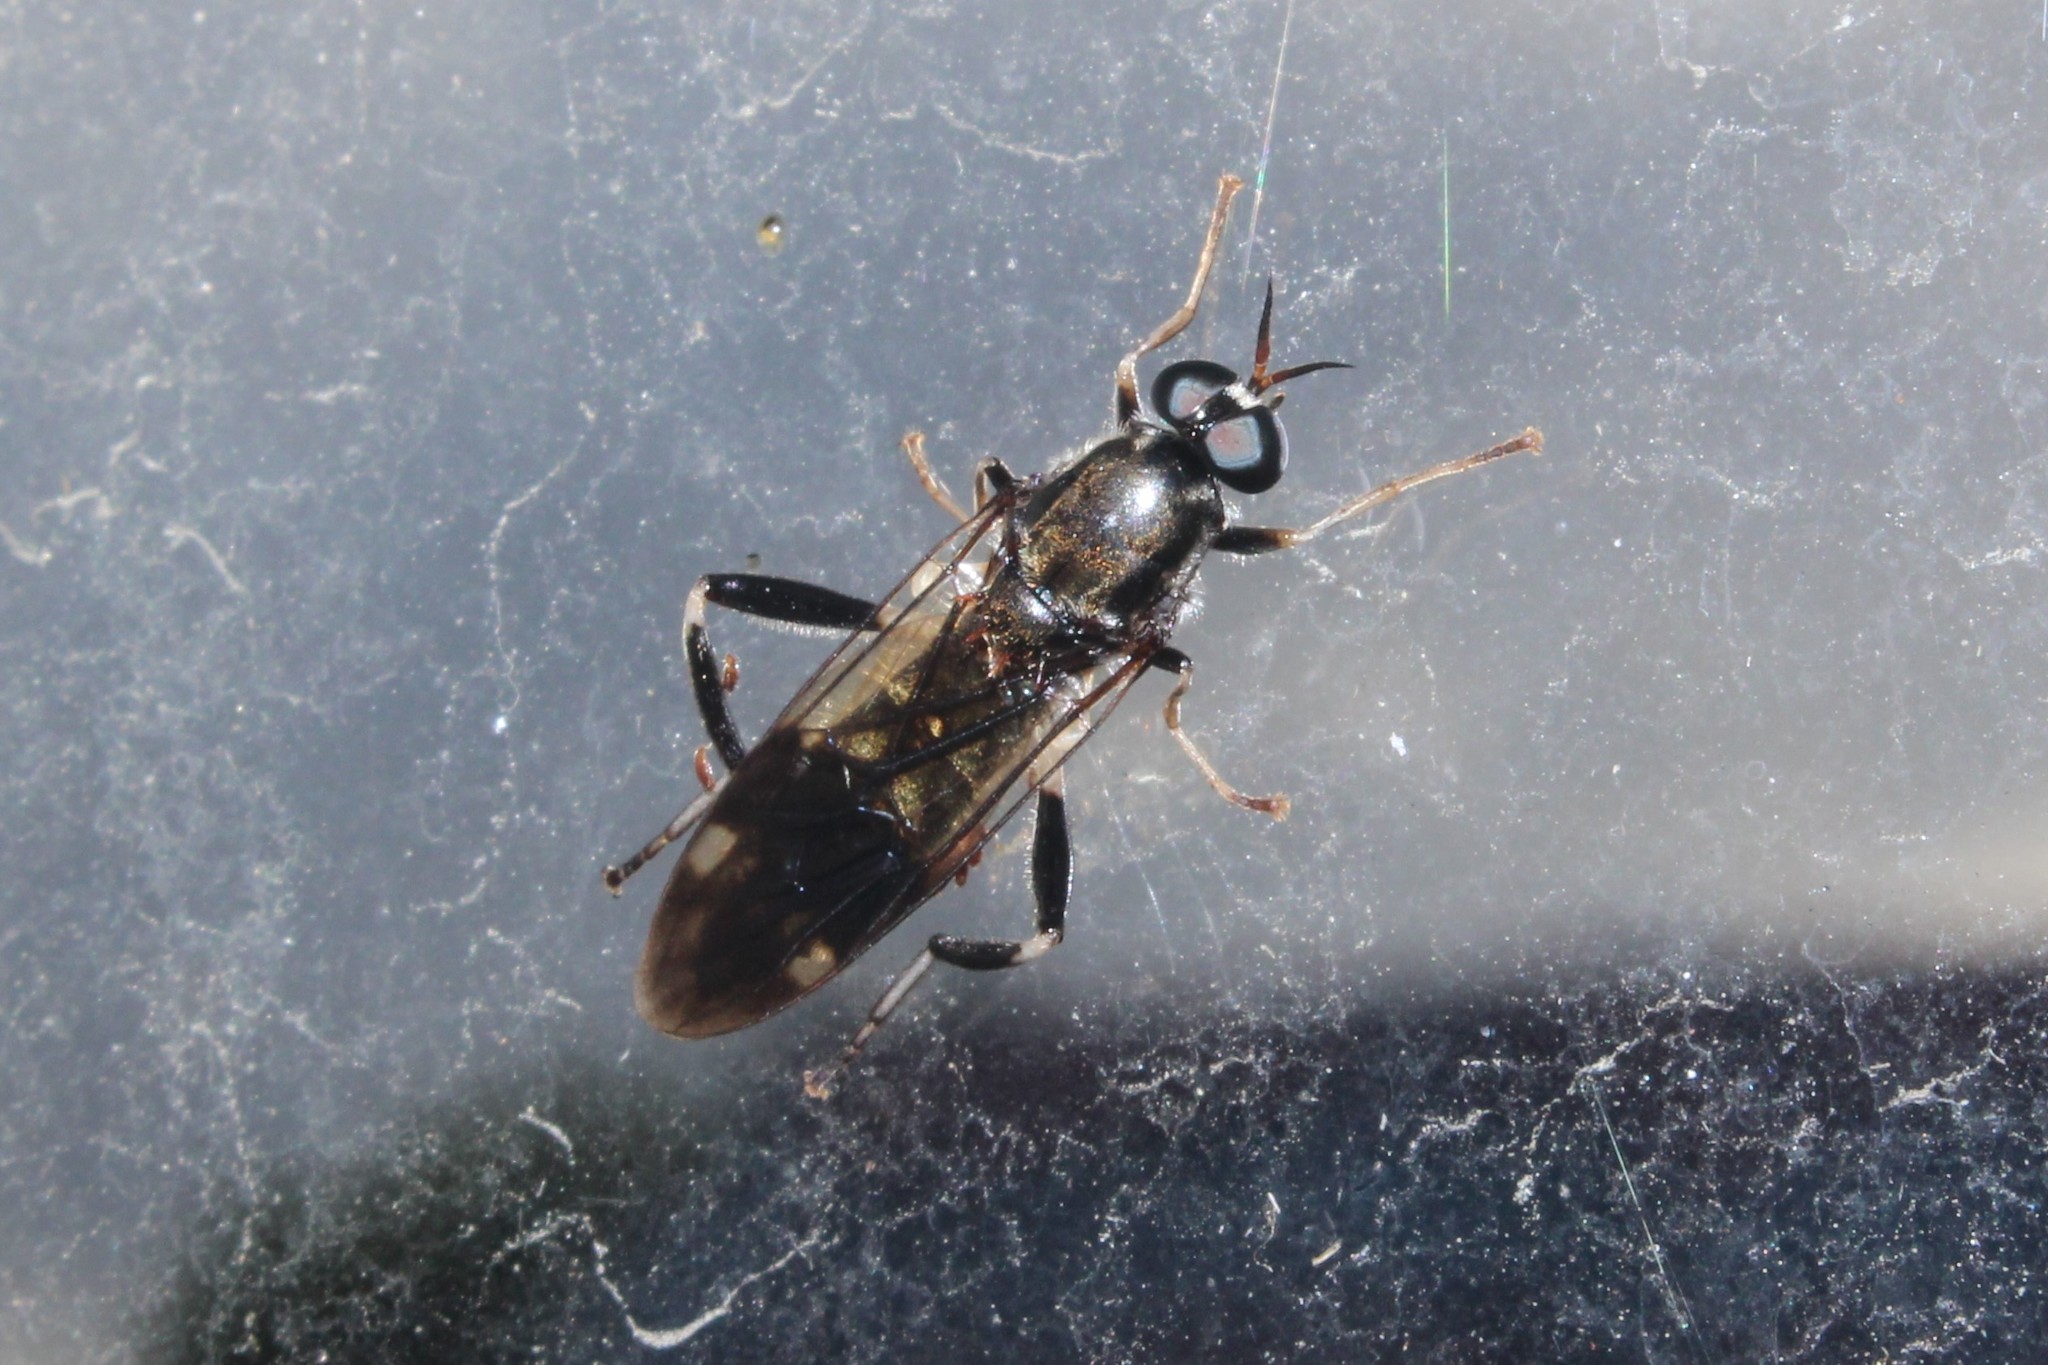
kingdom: Animalia
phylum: Arthropoda
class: Insecta
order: Diptera
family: Stratiomyidae
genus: Exaireta
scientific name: Exaireta spinigera
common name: Blue soldier fly
